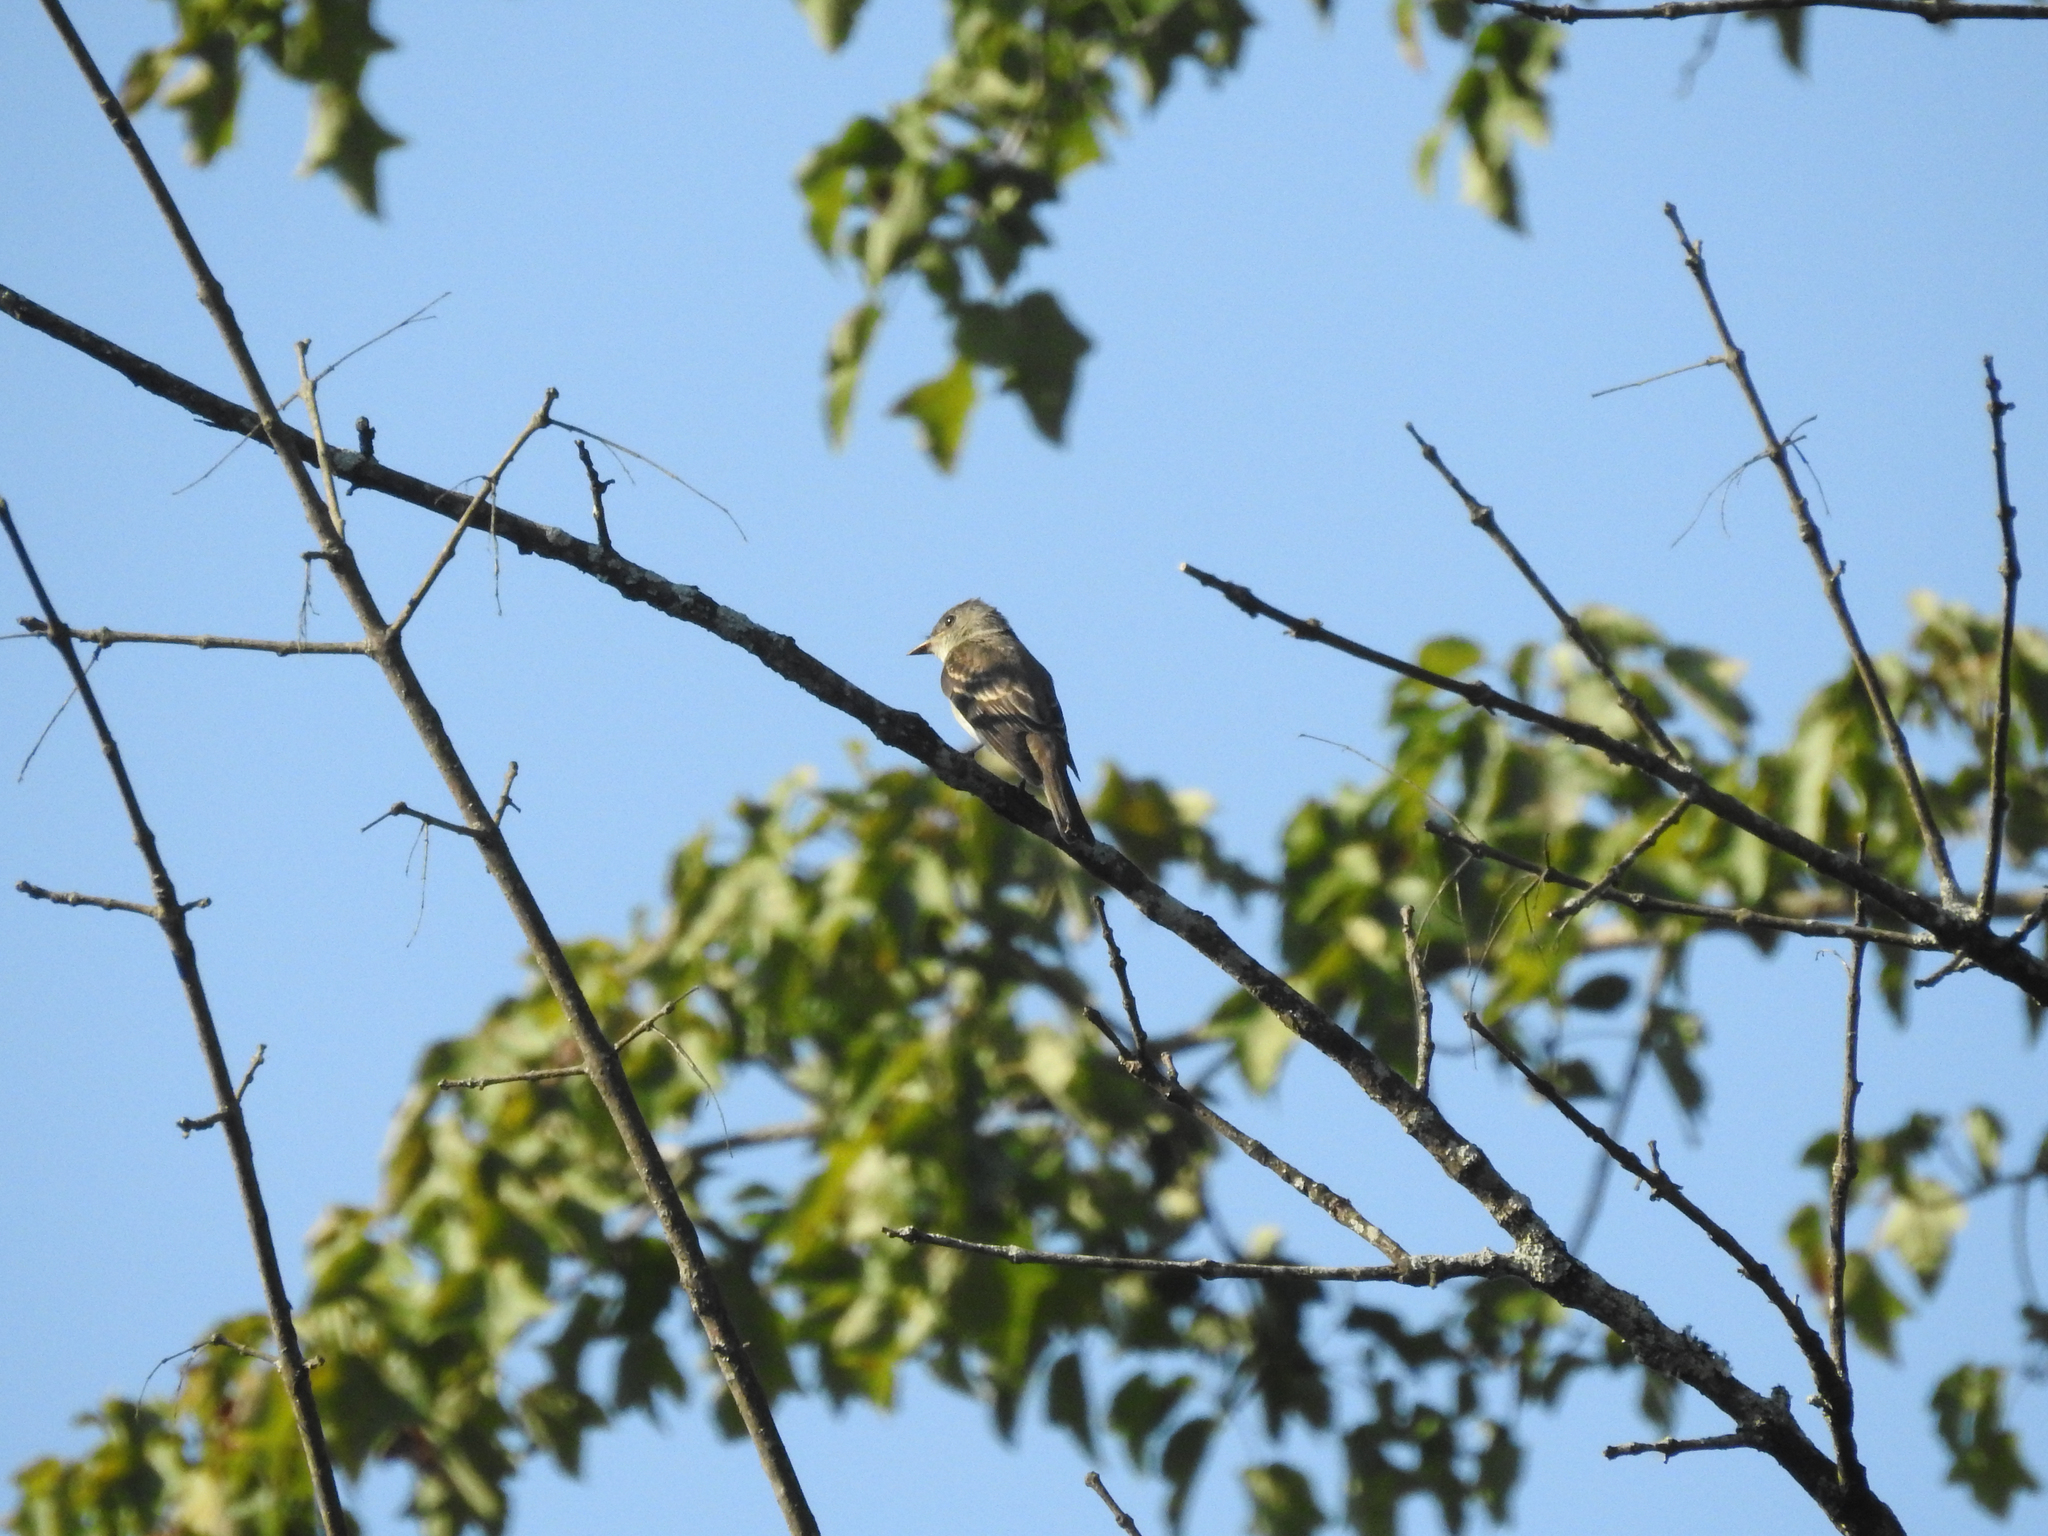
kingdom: Animalia
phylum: Chordata
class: Aves
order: Passeriformes
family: Tyrannidae
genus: Contopus
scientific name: Contopus virens
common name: Eastern wood-pewee
